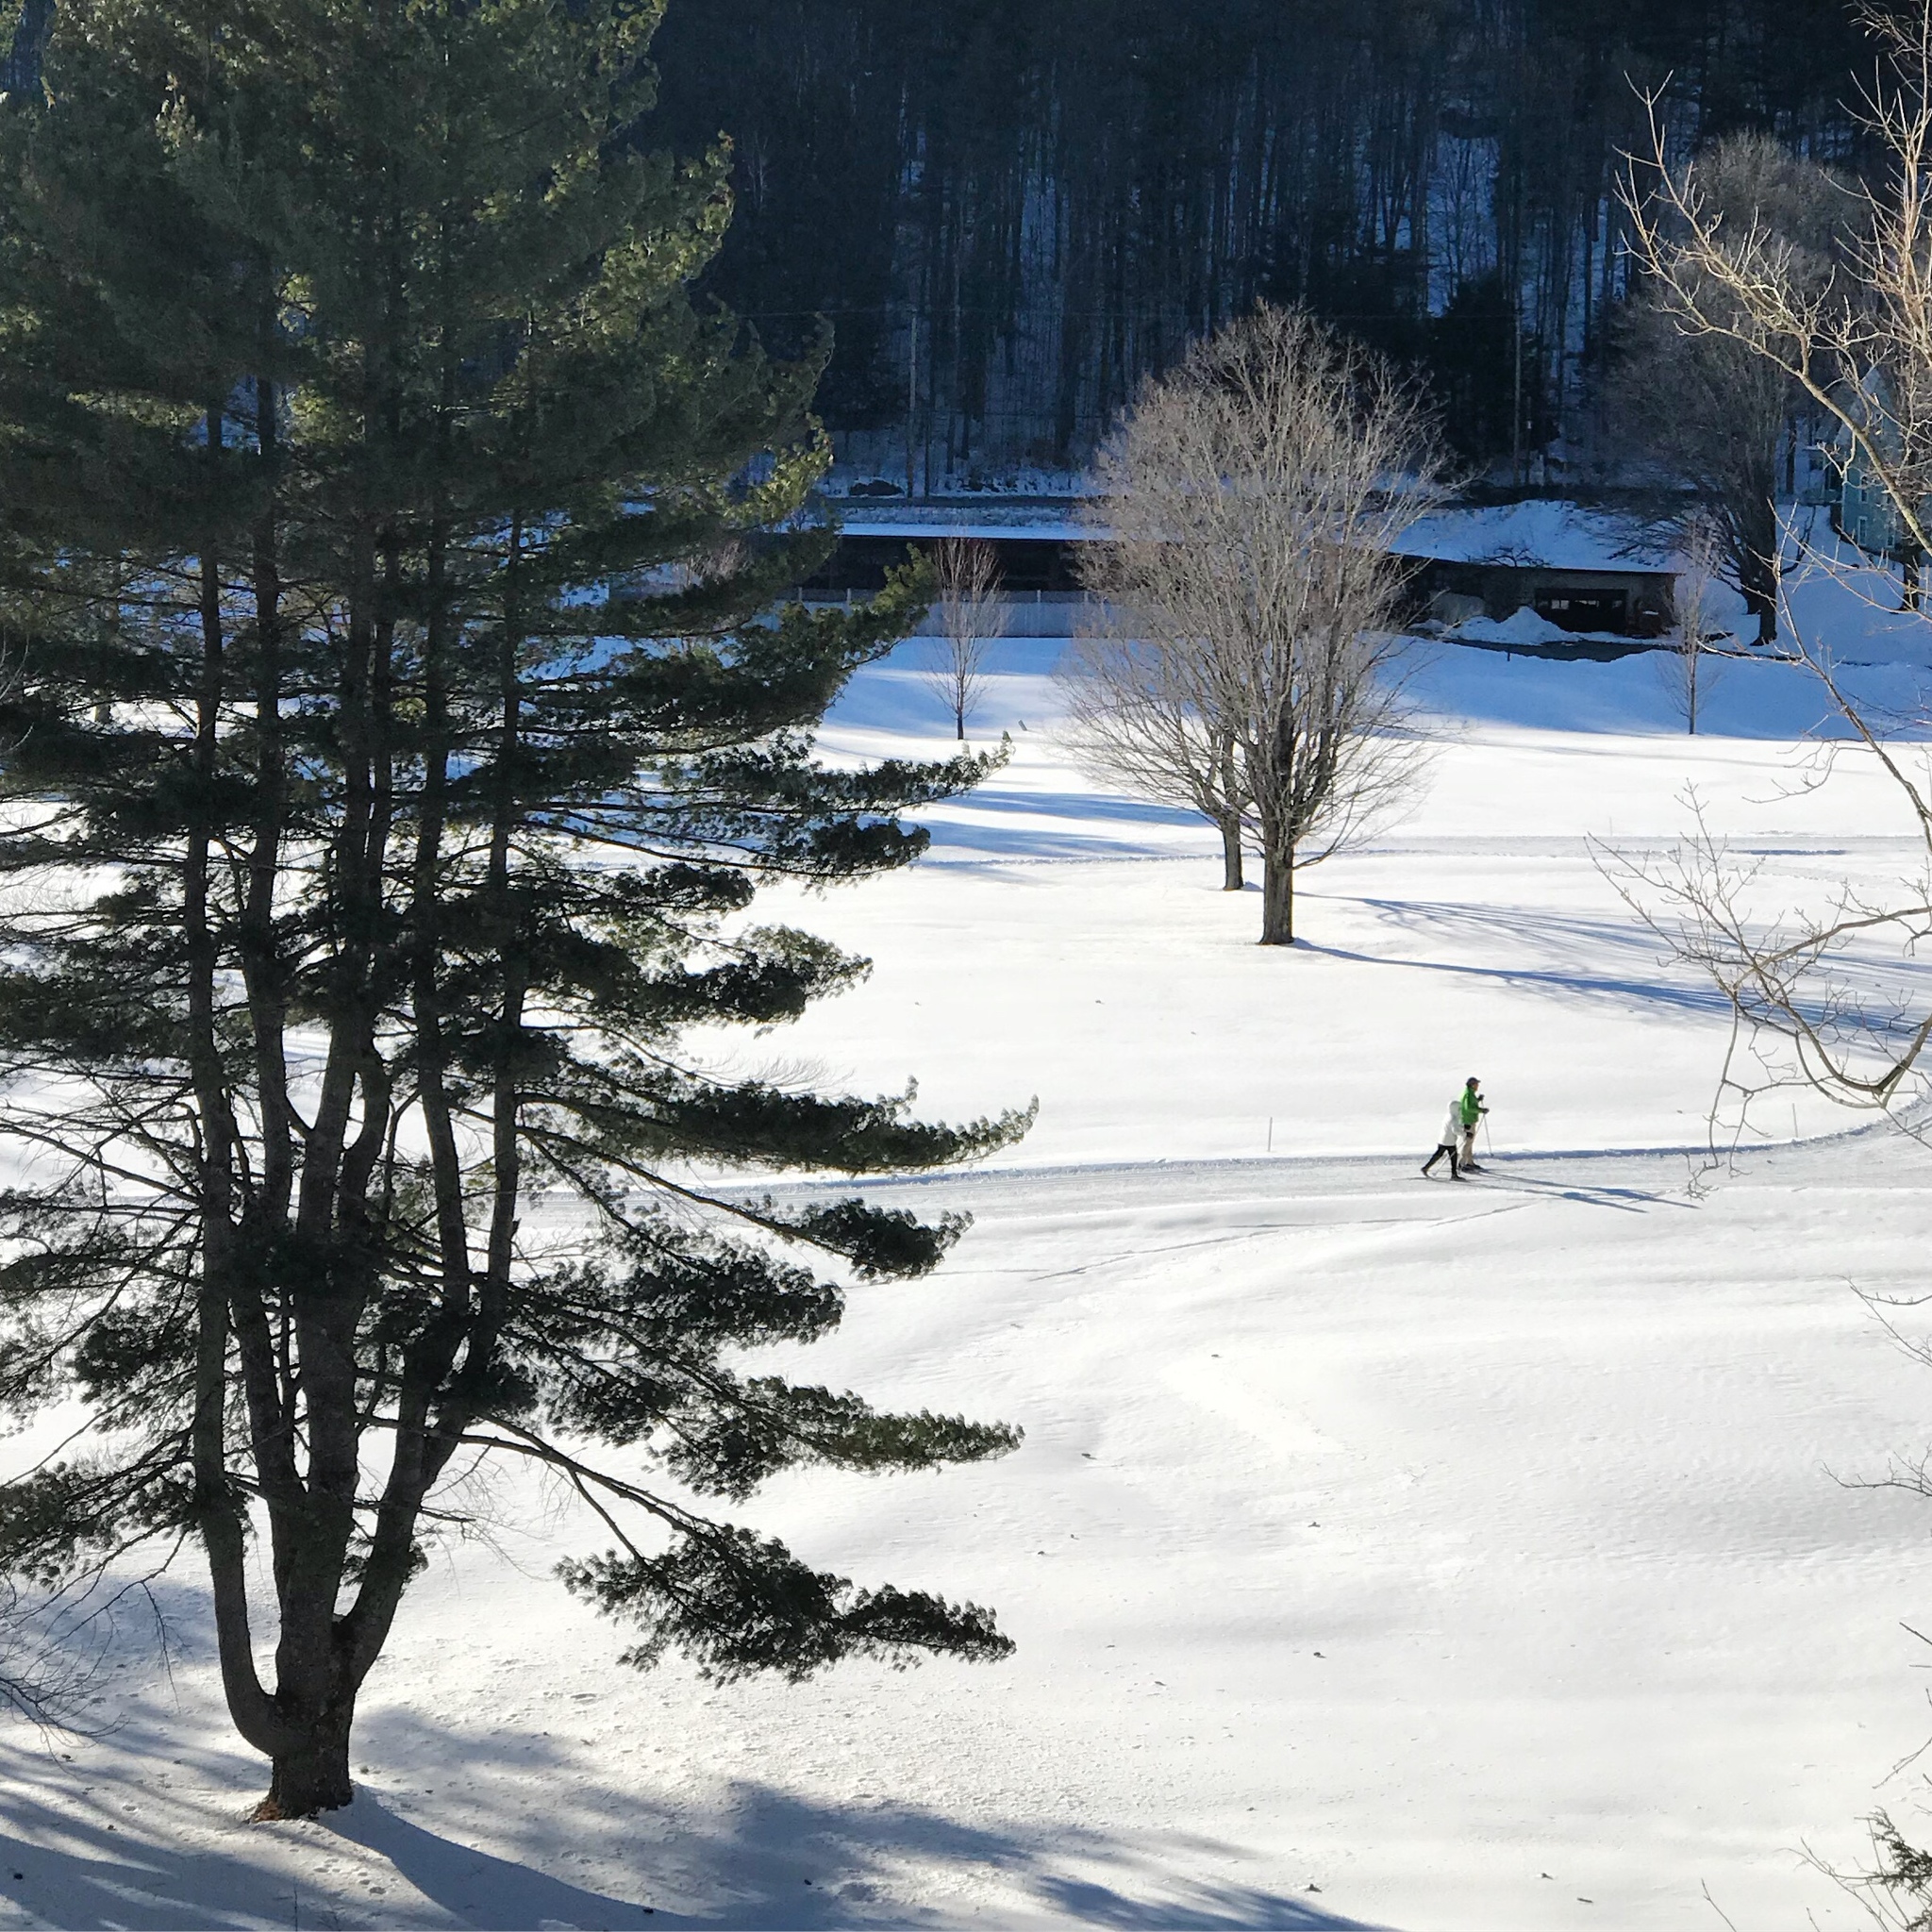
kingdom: Plantae
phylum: Tracheophyta
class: Pinopsida
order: Pinales
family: Pinaceae
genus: Pinus
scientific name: Pinus strobus
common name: Weymouth pine
